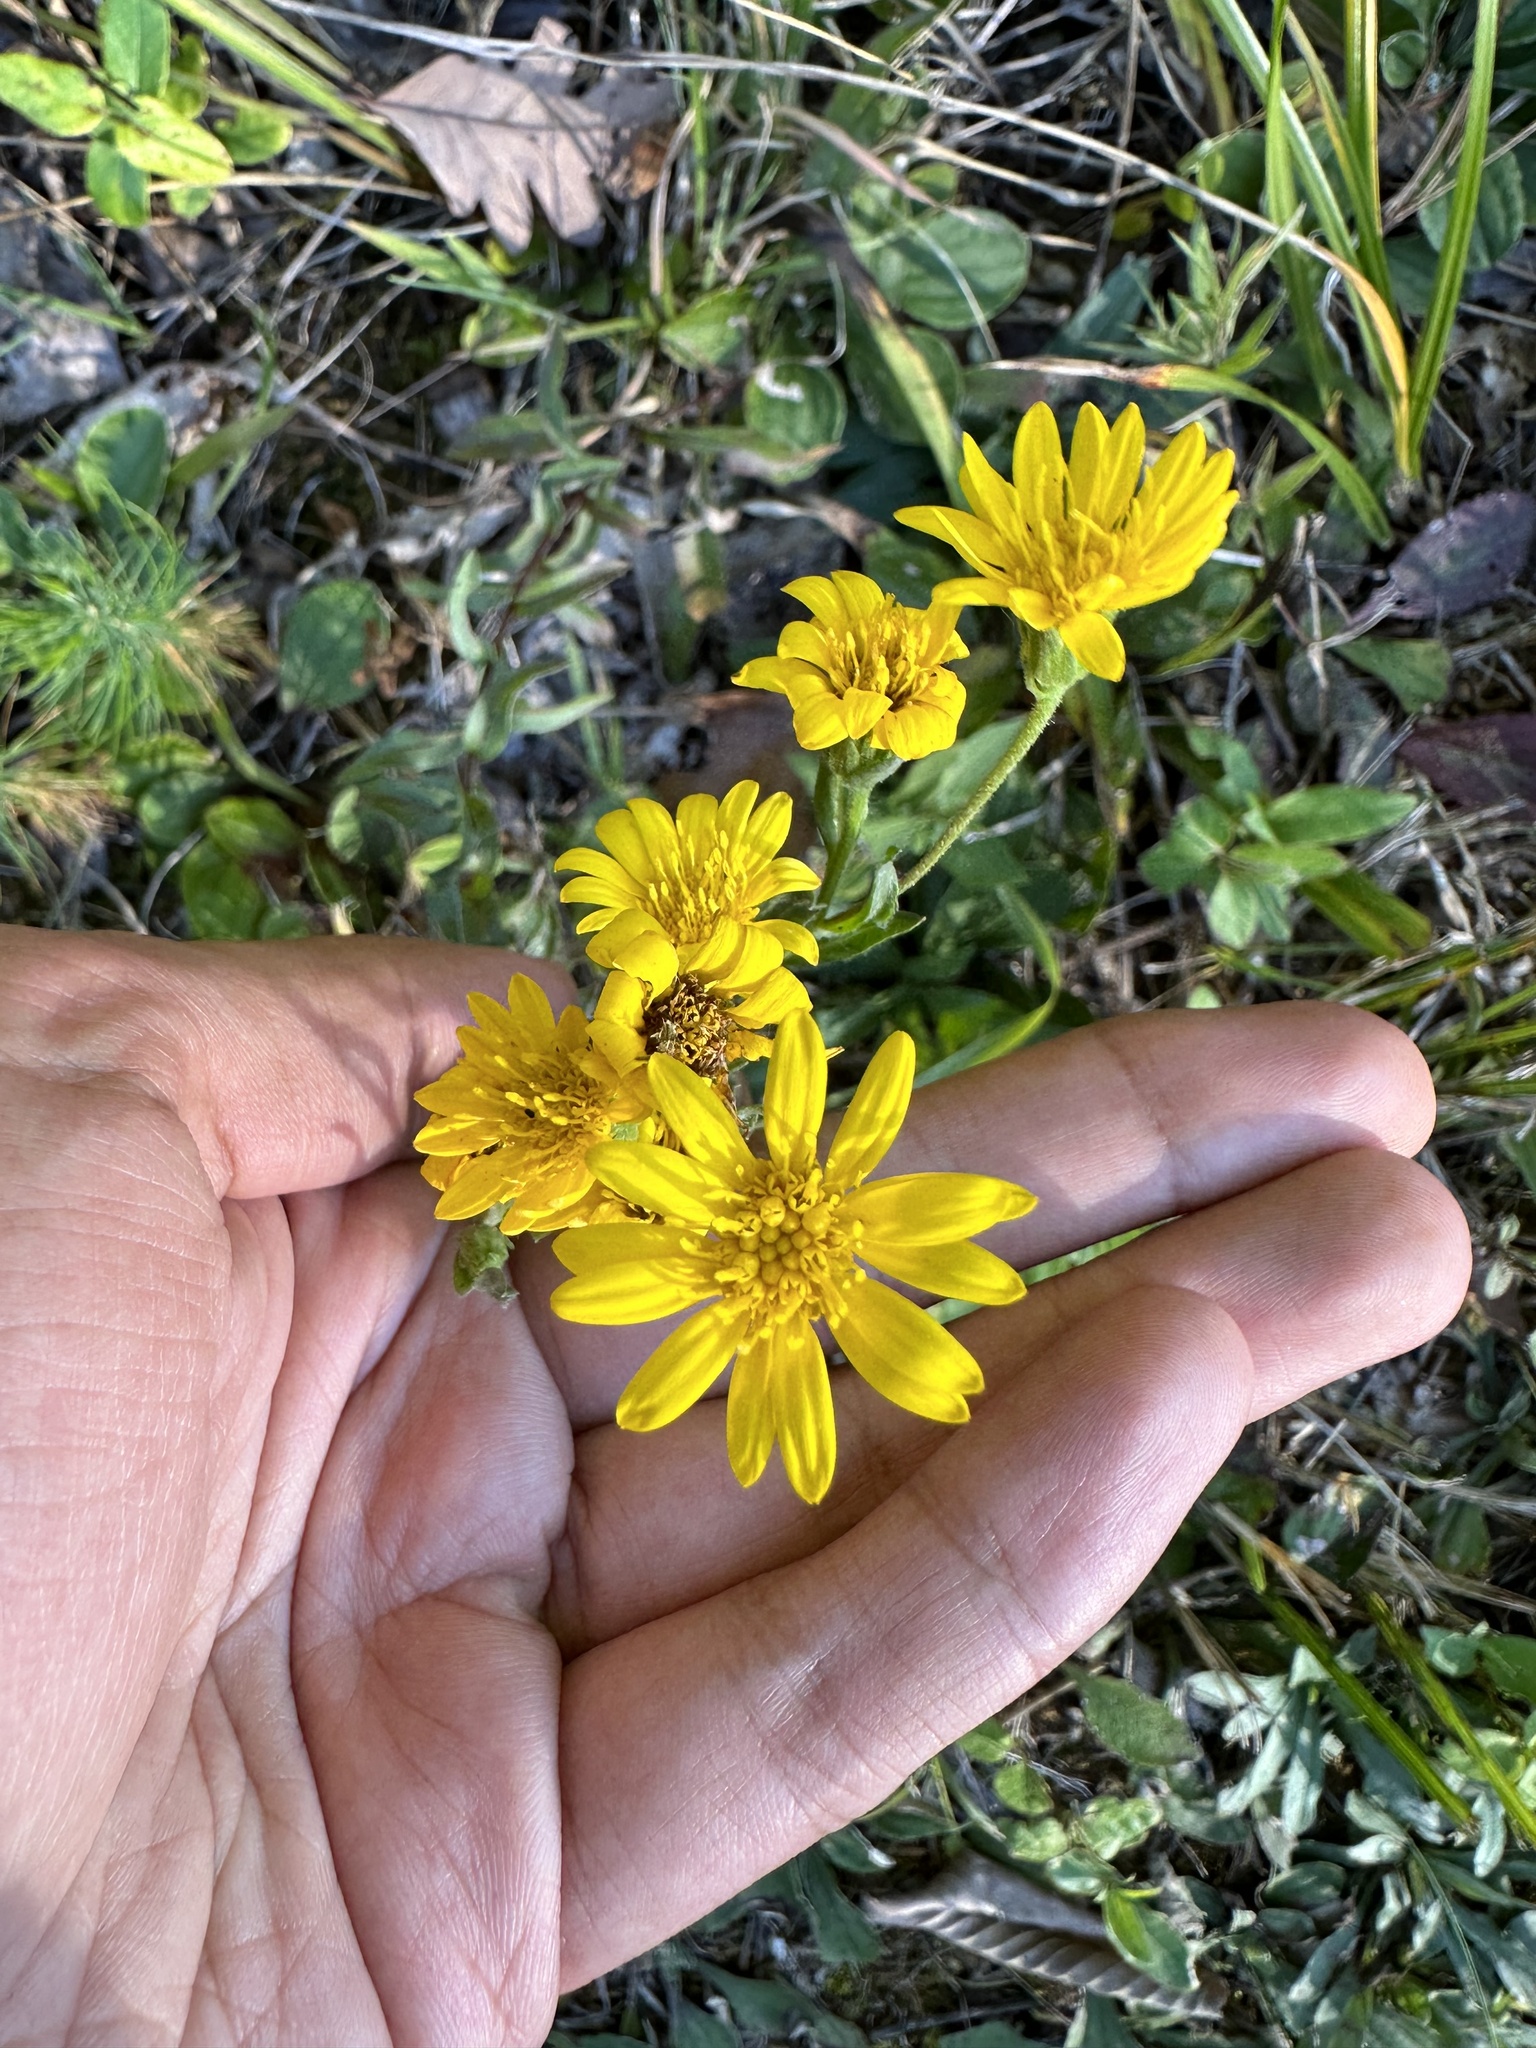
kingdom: Plantae
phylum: Tracheophyta
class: Magnoliopsida
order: Asterales
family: Asteraceae
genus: Chrysopsis
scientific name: Chrysopsis mariana
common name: Maryland golden-aster
